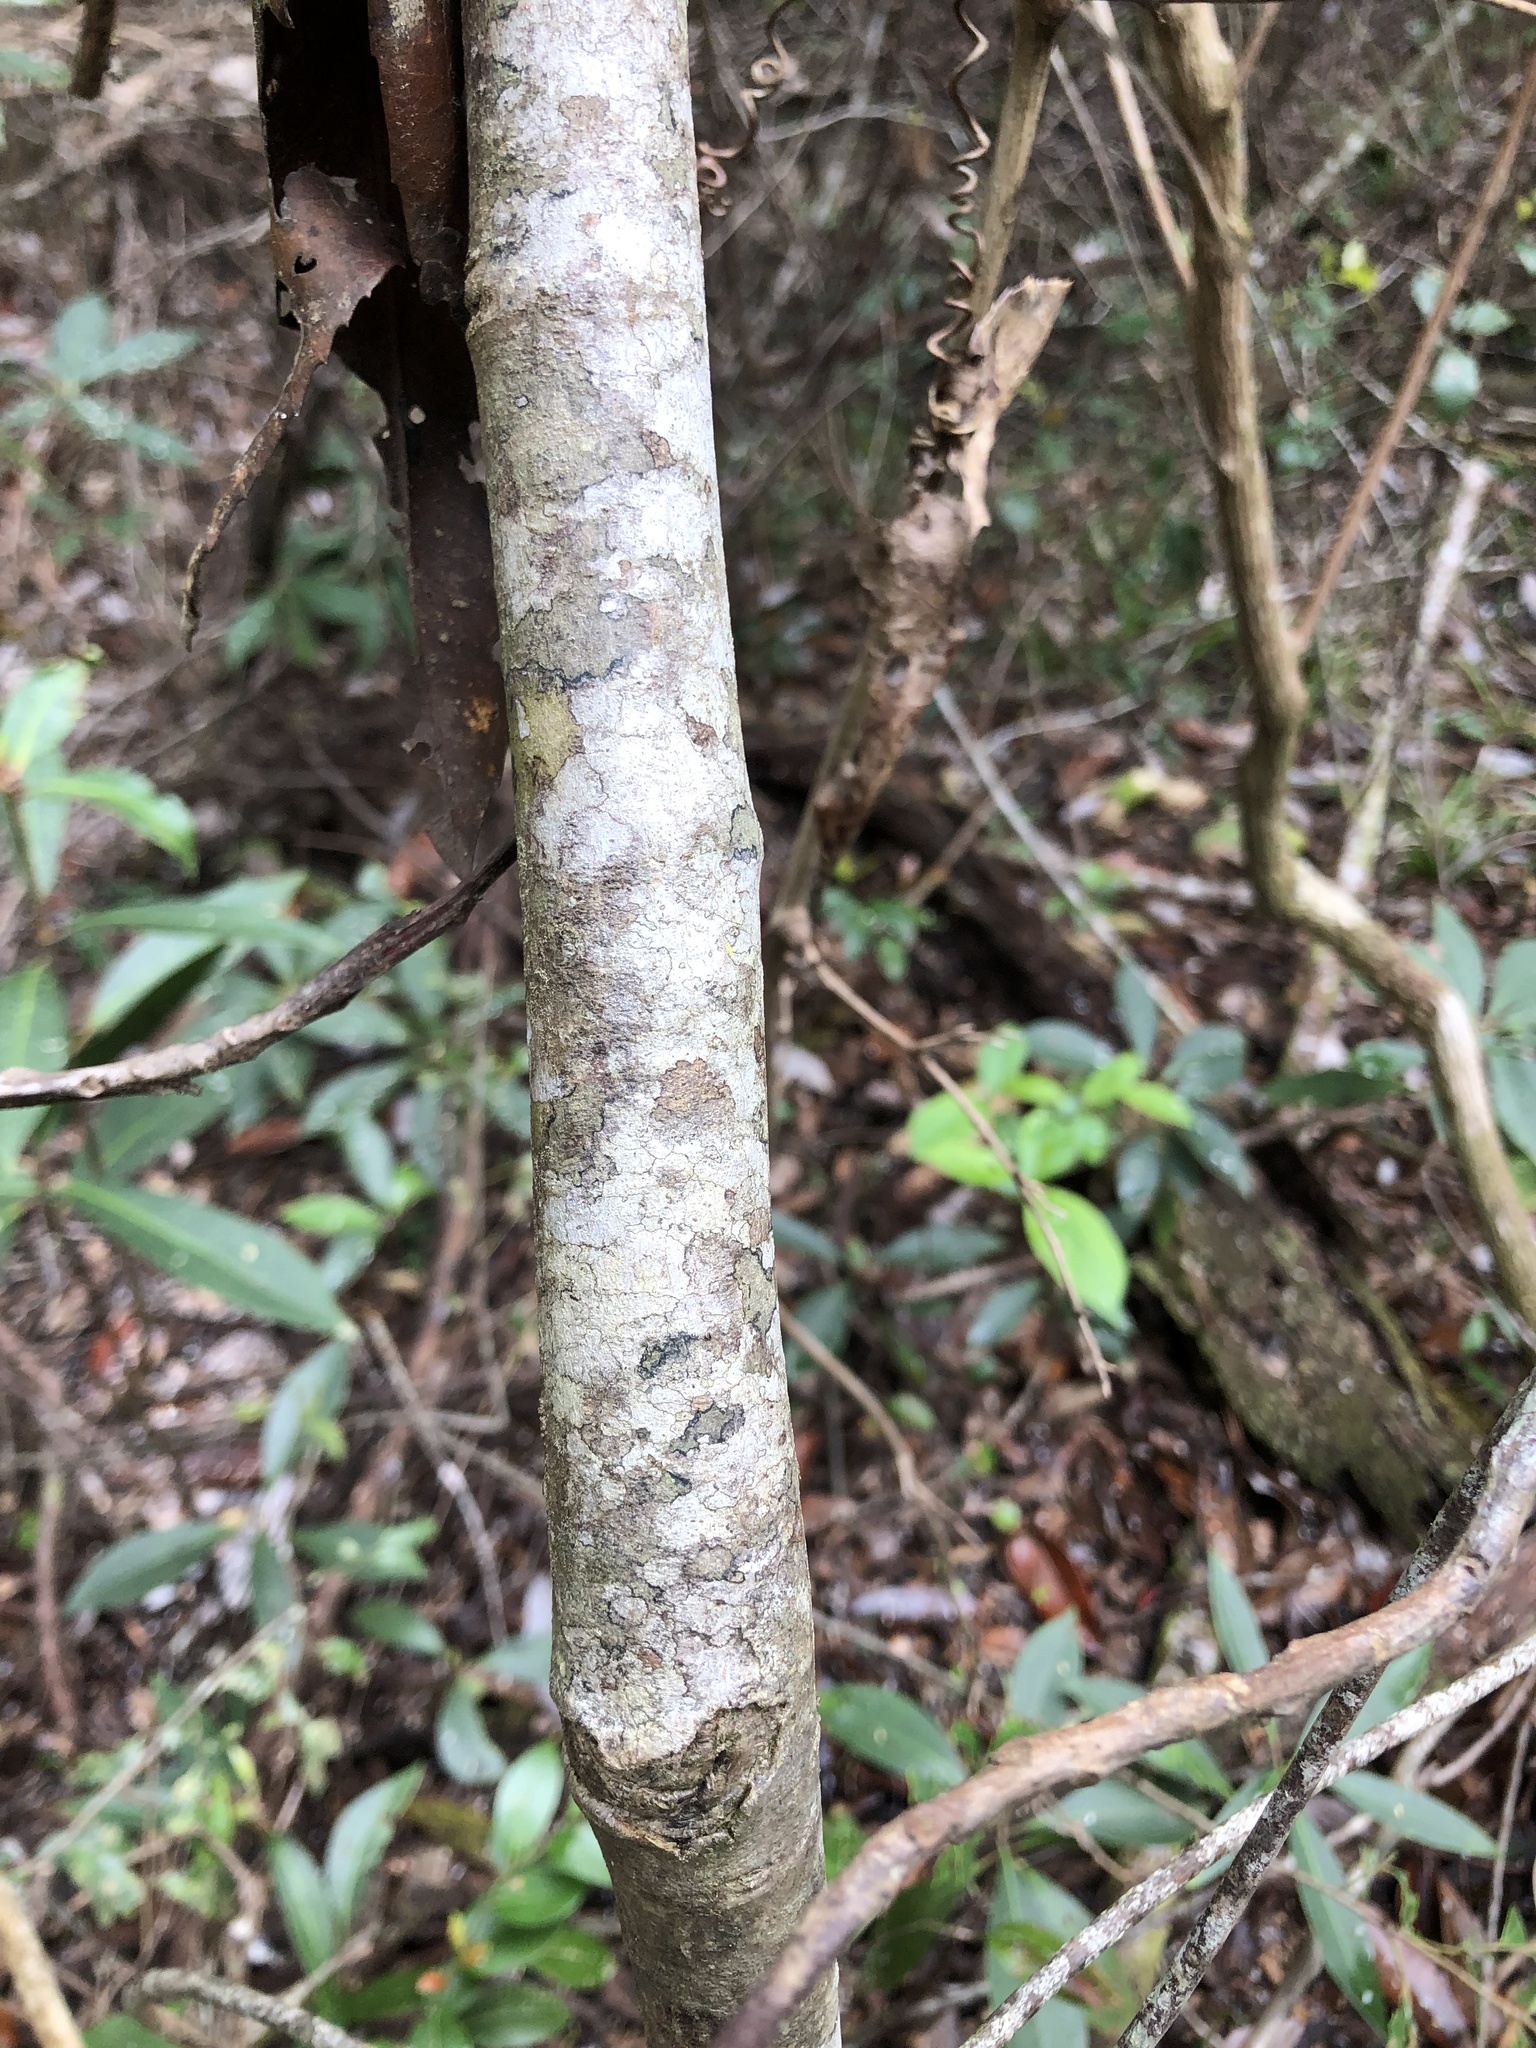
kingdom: Plantae
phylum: Tracheophyta
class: Magnoliopsida
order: Ericales
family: Theaceae
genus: Gordonia
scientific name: Gordonia lasianthus
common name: Loblolly bay
